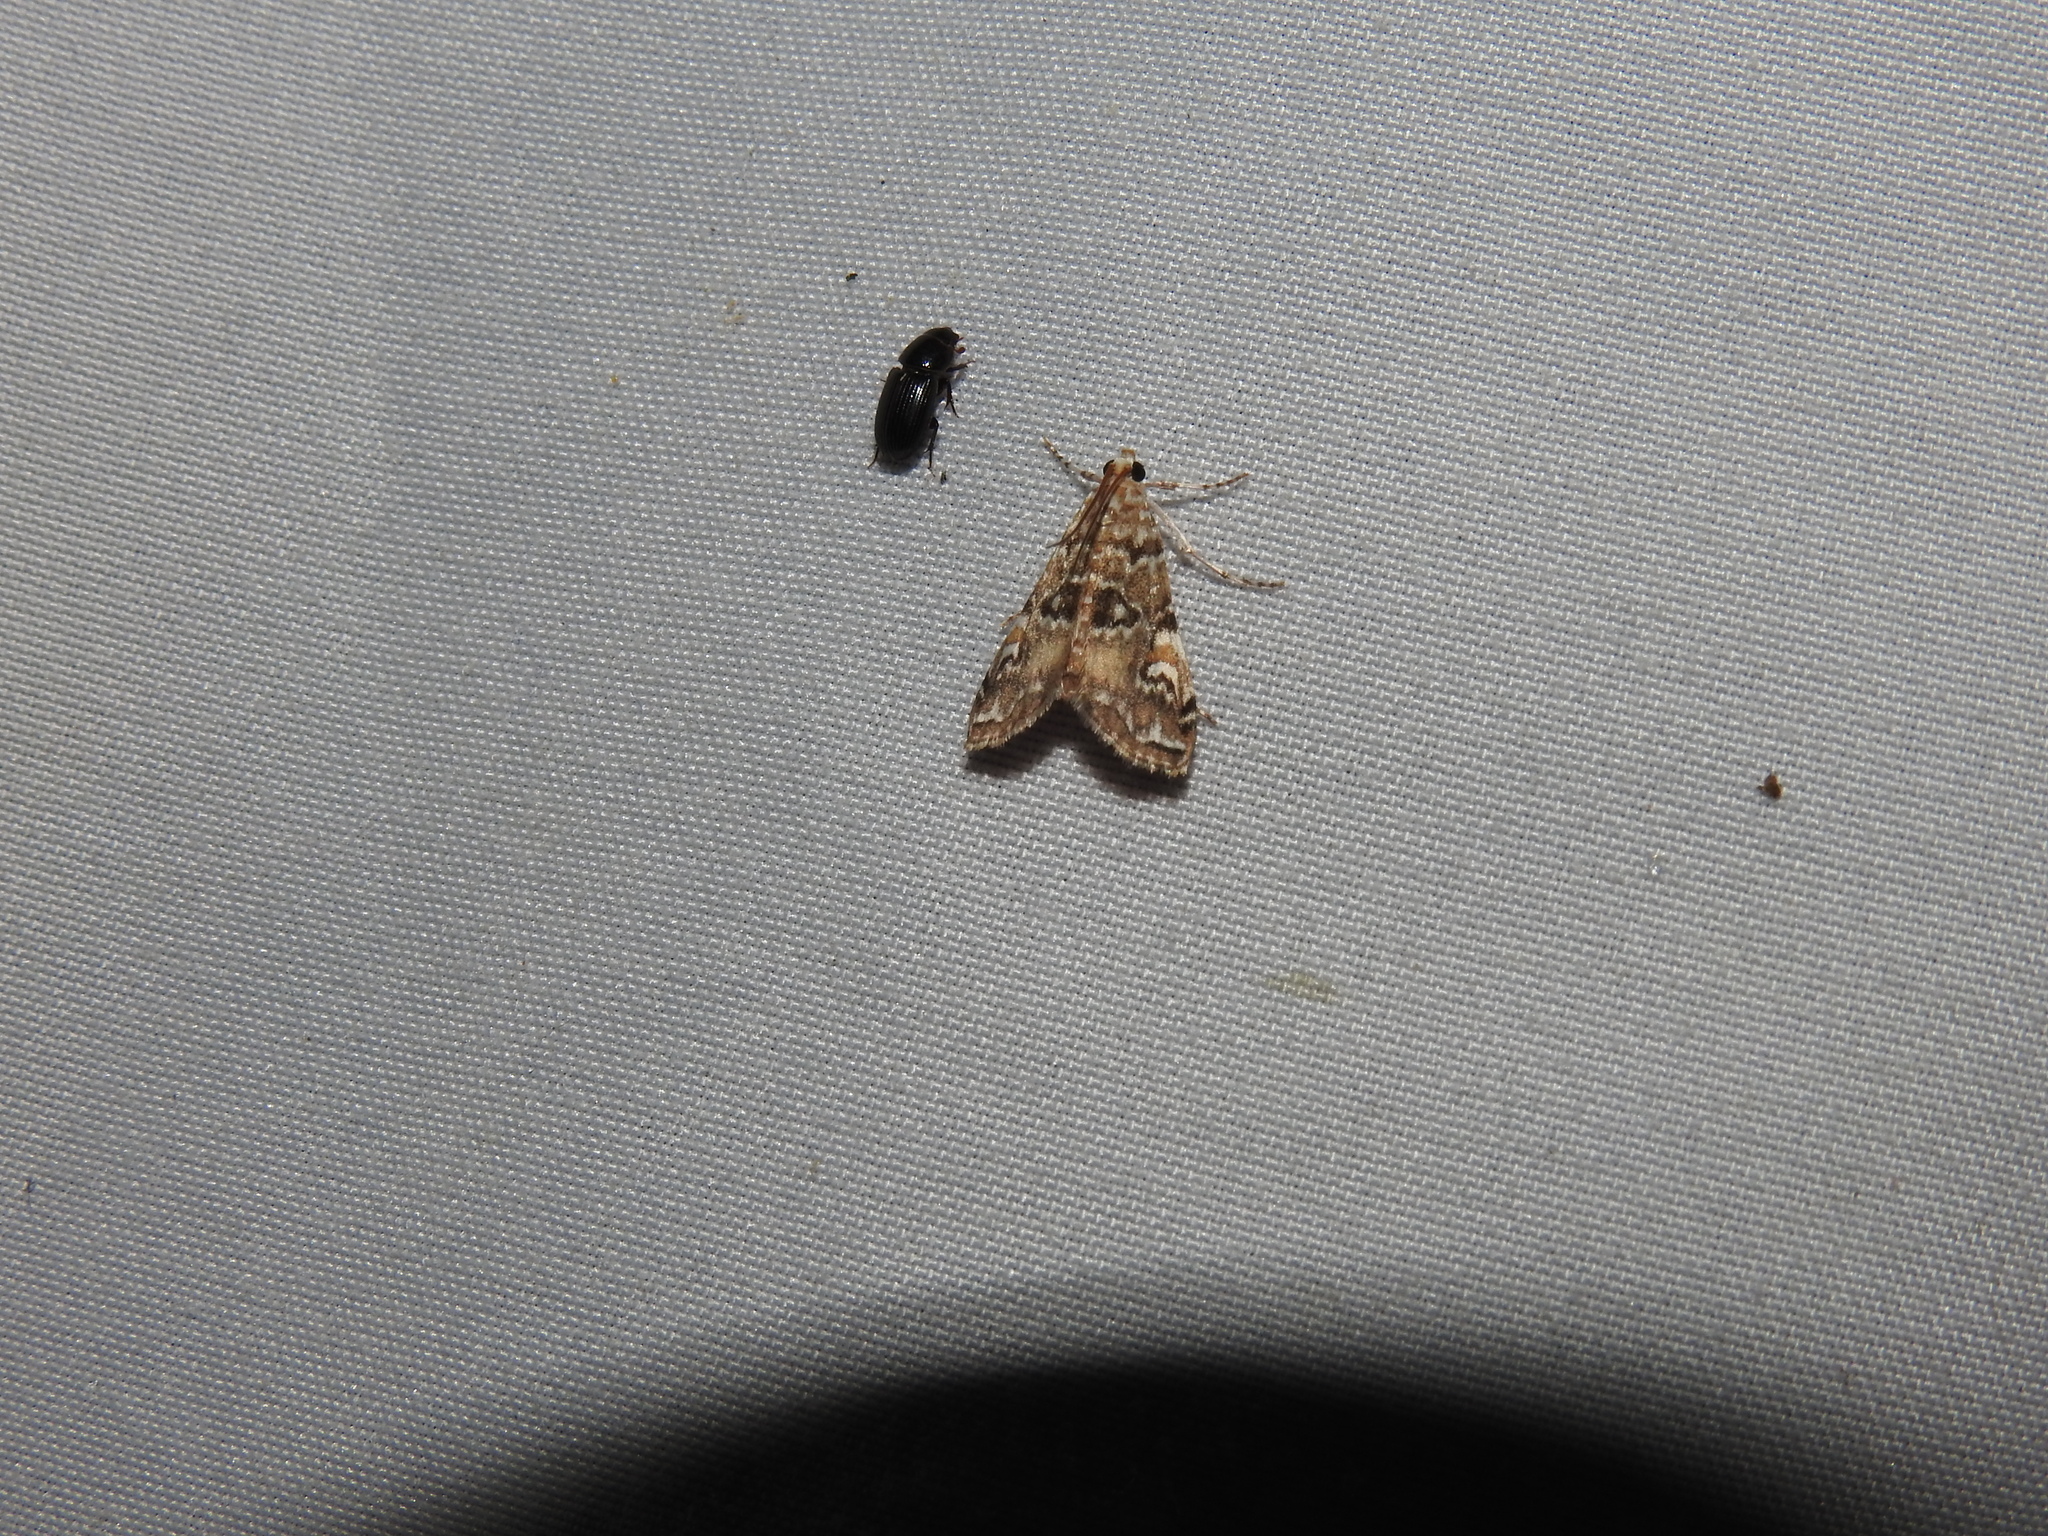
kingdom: Animalia
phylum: Arthropoda
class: Insecta
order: Lepidoptera
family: Crambidae
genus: Elophila
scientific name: Elophila gyralis
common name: Waterlily borer moth
